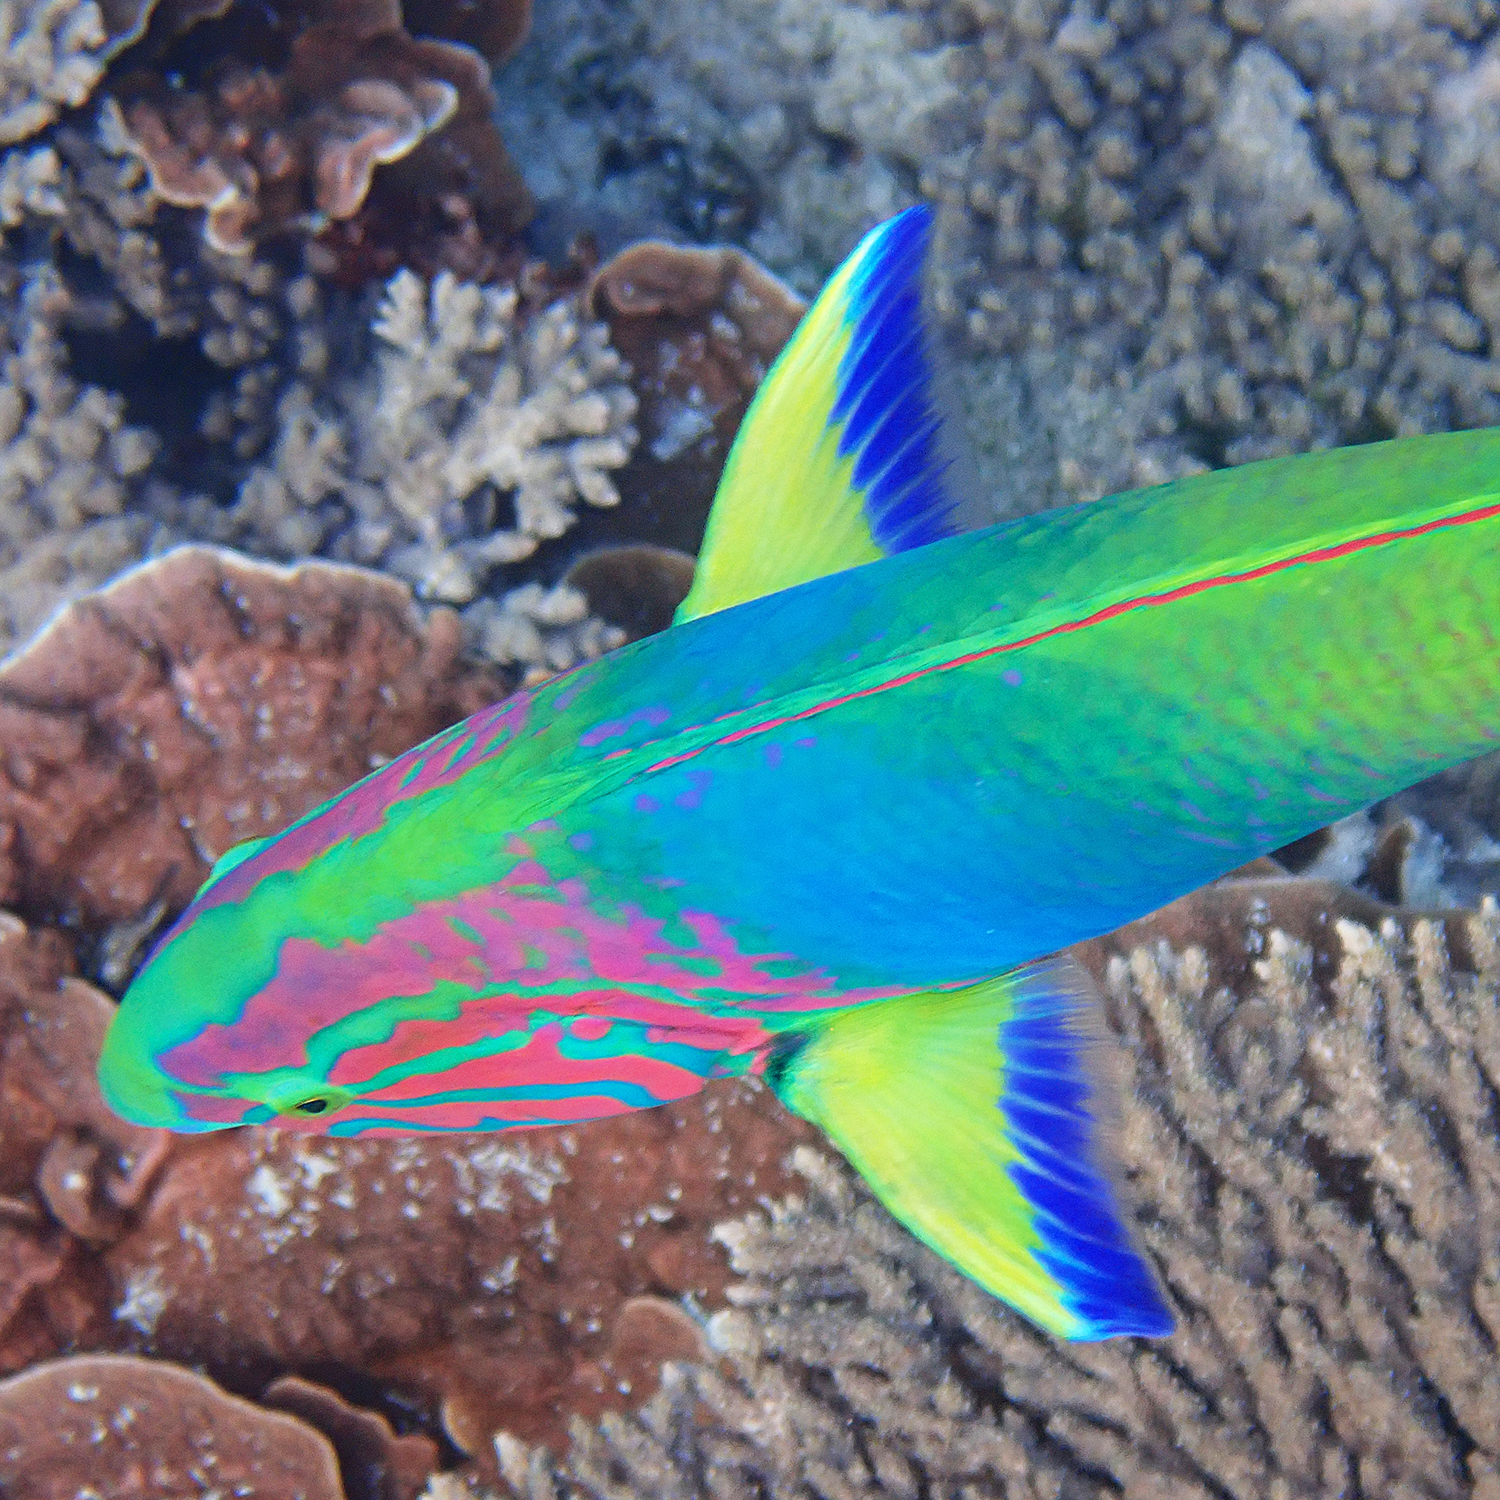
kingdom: Animalia
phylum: Chordata
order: Perciformes
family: Labridae
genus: Thalassoma
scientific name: Thalassoma lutescens
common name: Green moon wrasse
